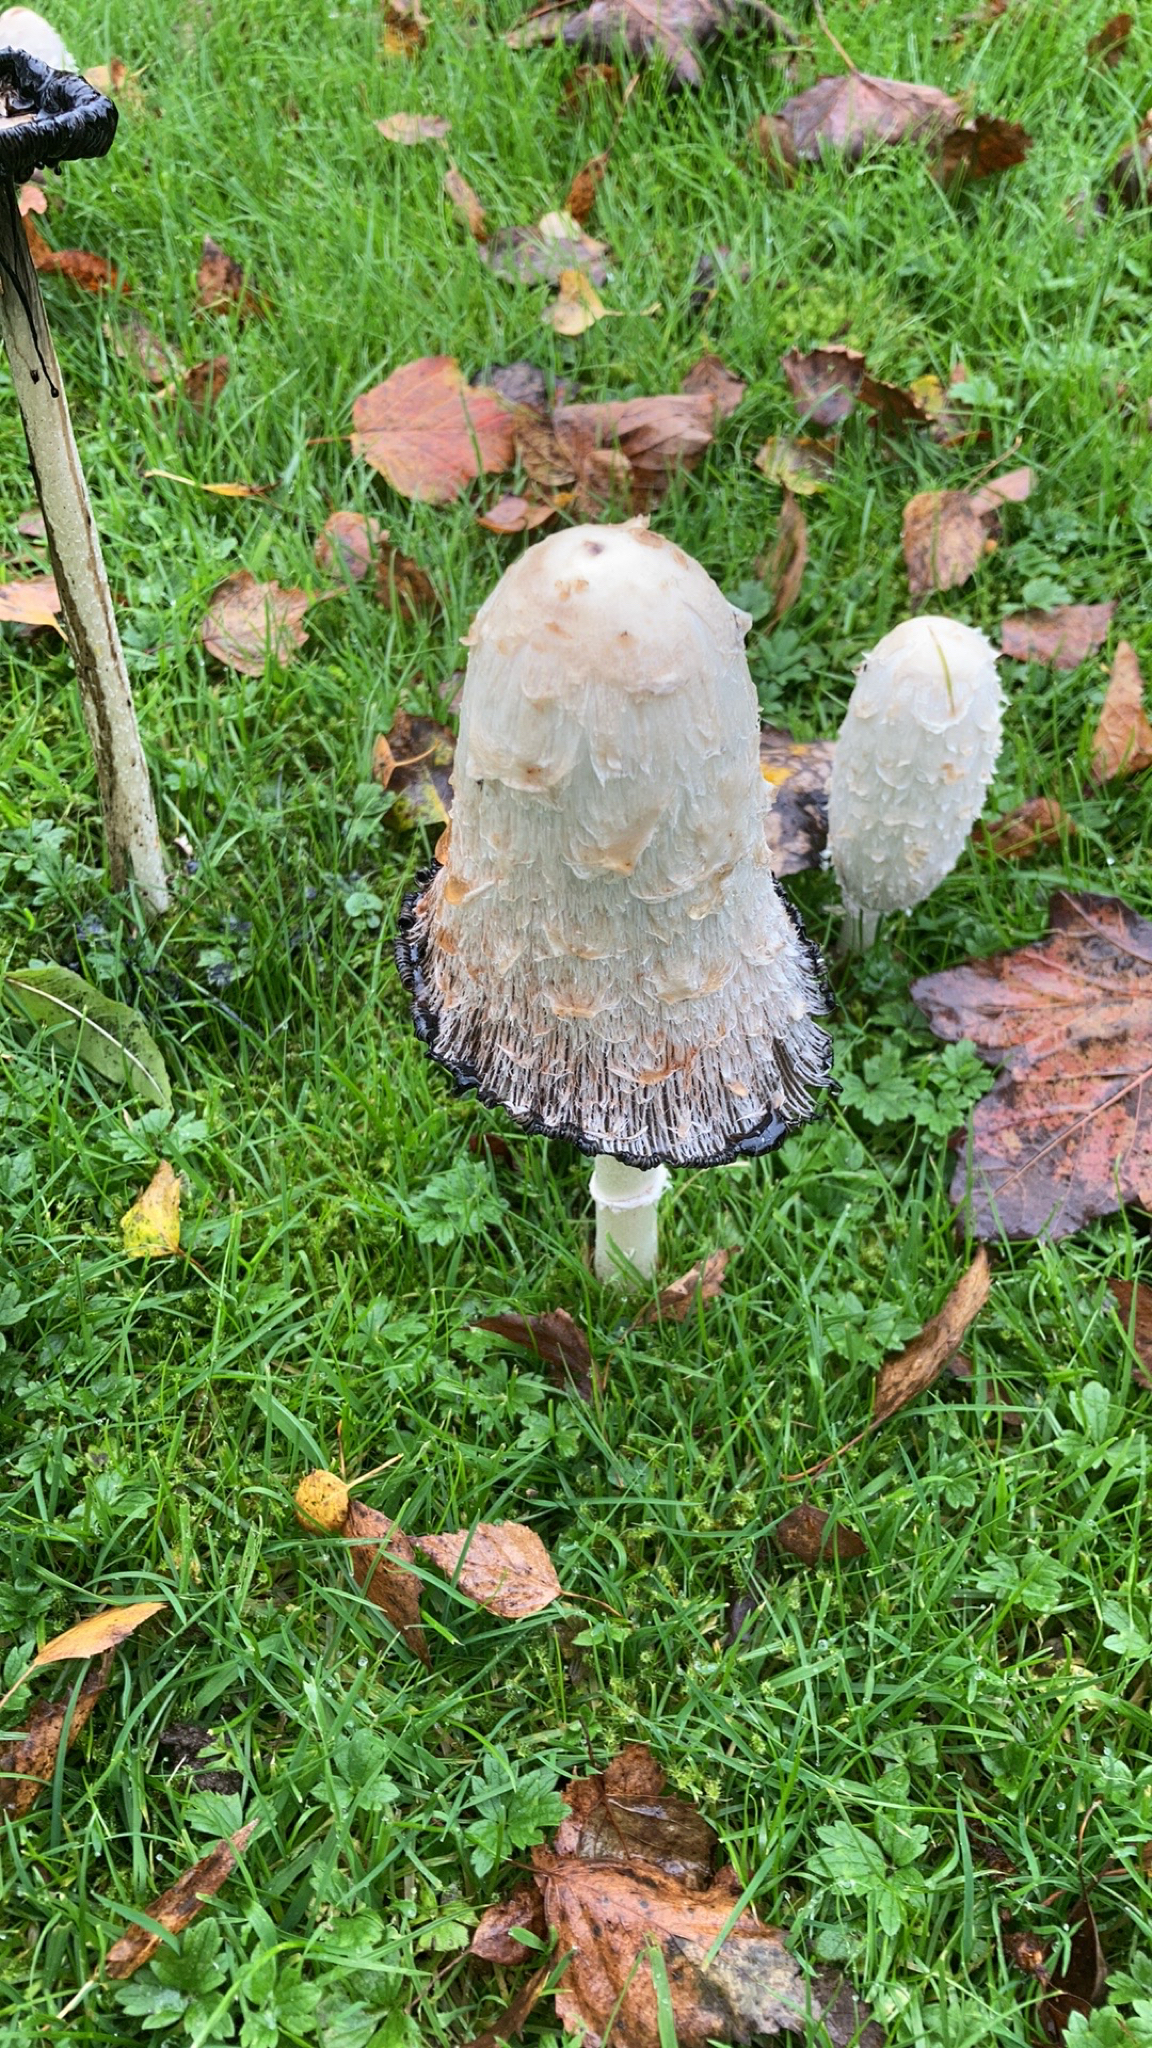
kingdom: Fungi
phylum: Basidiomycota
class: Agaricomycetes
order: Agaricales
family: Agaricaceae
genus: Coprinus
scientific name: Coprinus comatus
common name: Lawyer's wig
